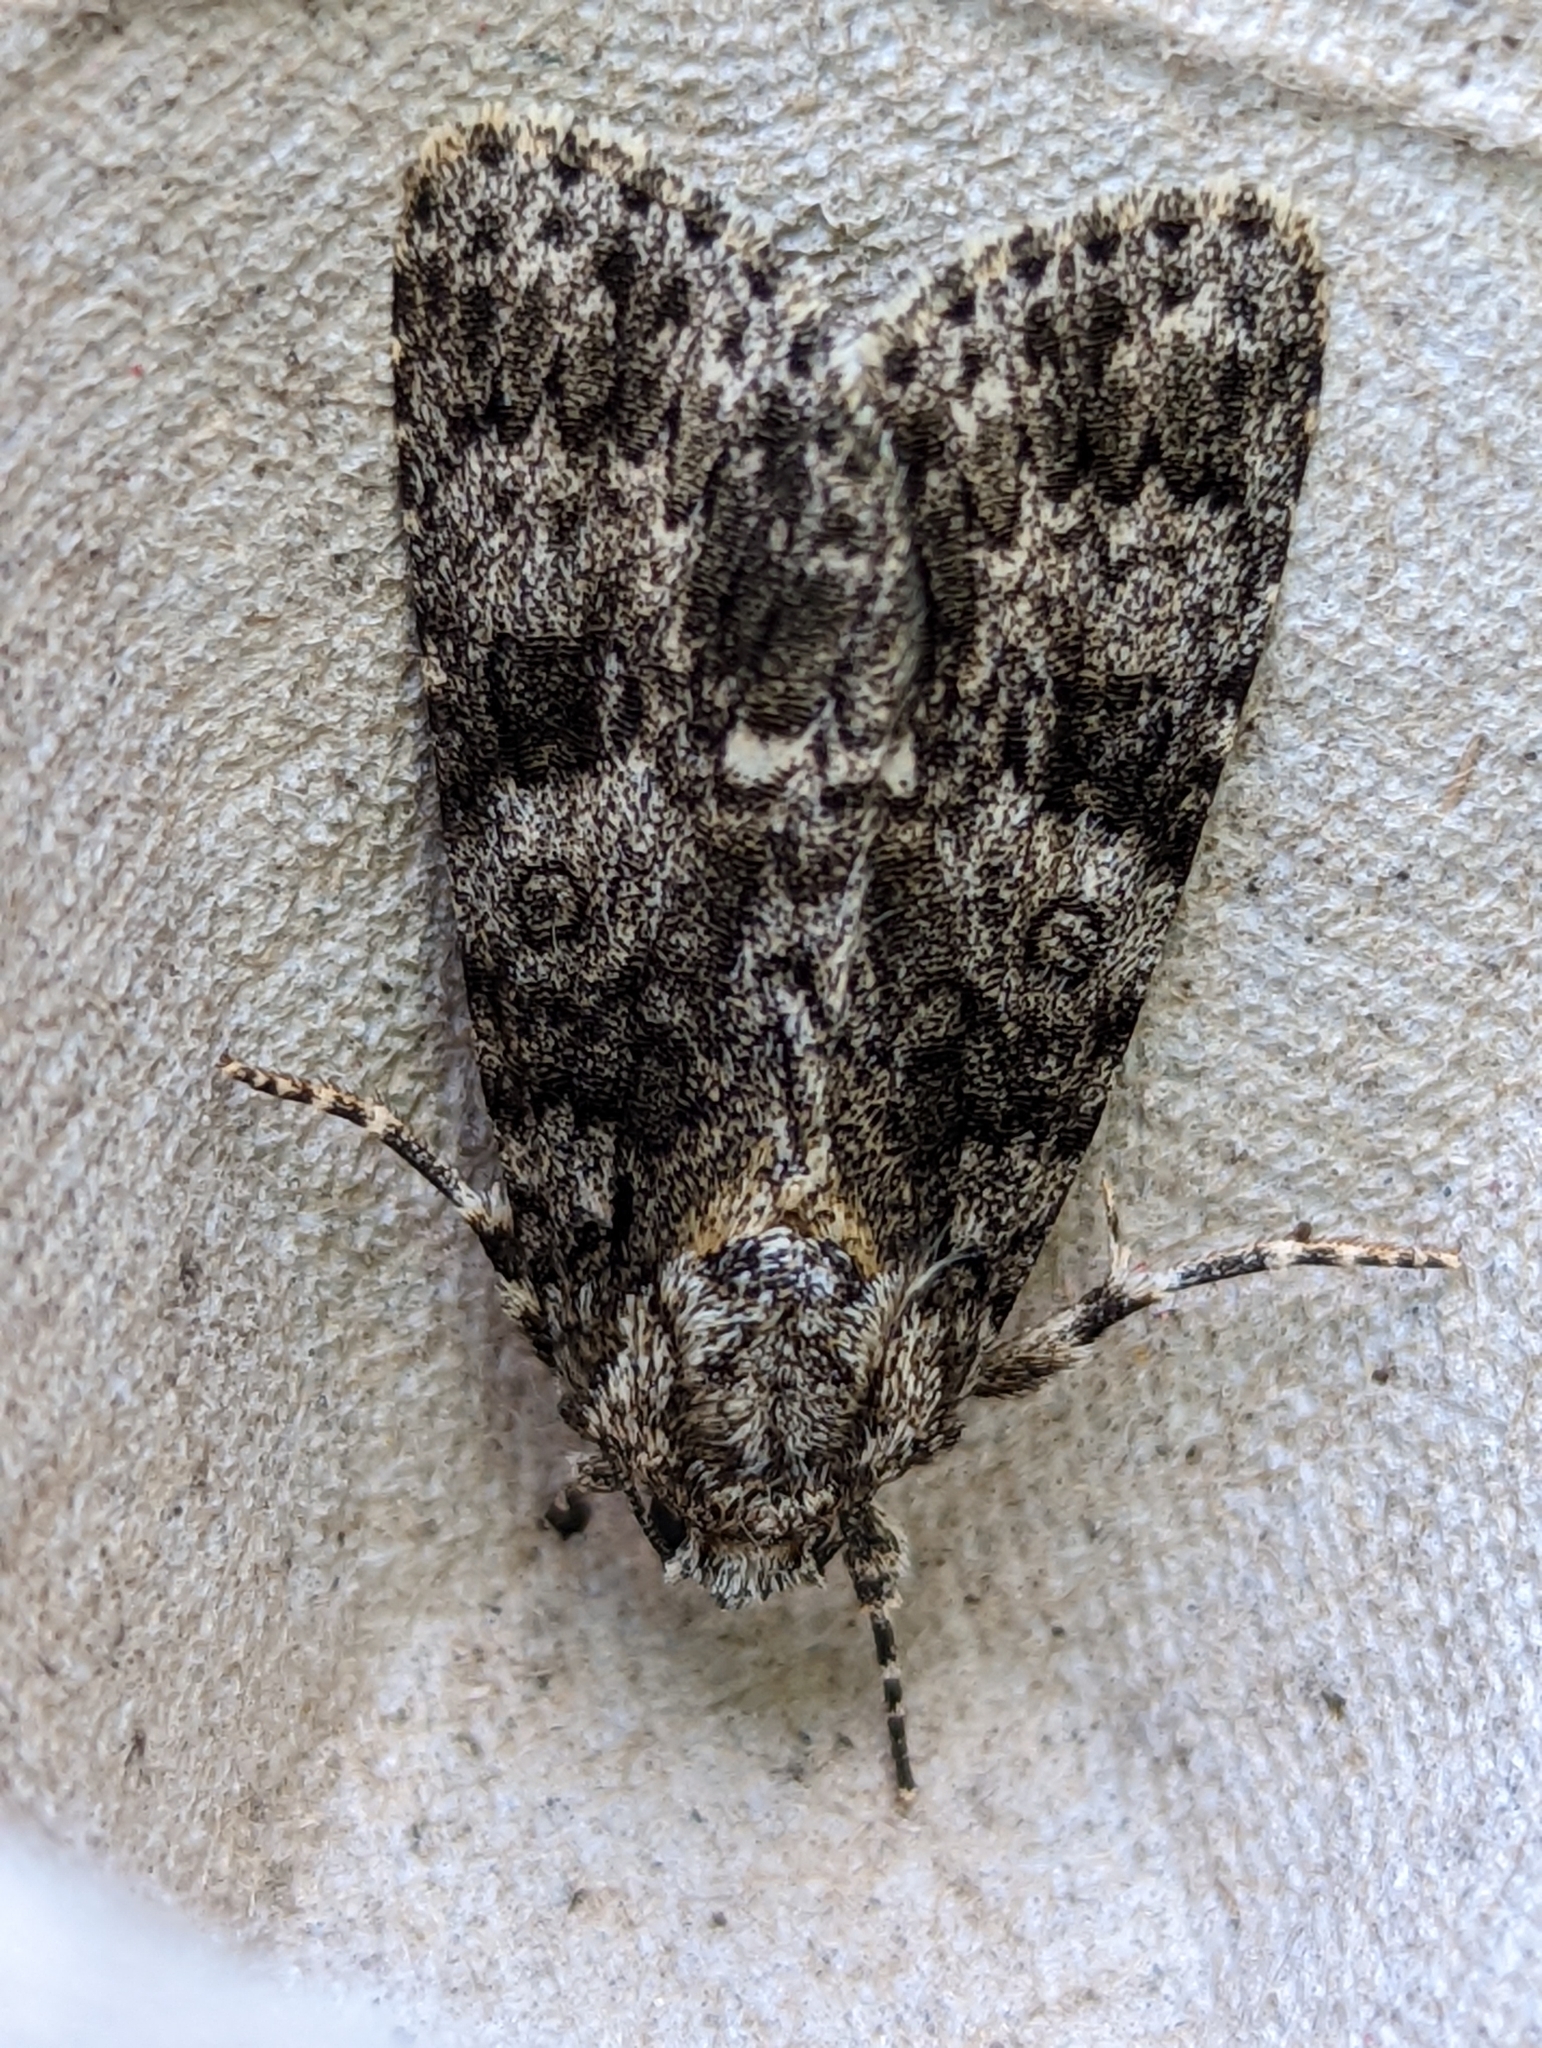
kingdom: Animalia
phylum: Arthropoda
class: Insecta
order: Lepidoptera
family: Noctuidae
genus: Acronicta
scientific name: Acronicta rumicis
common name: Knot grass
